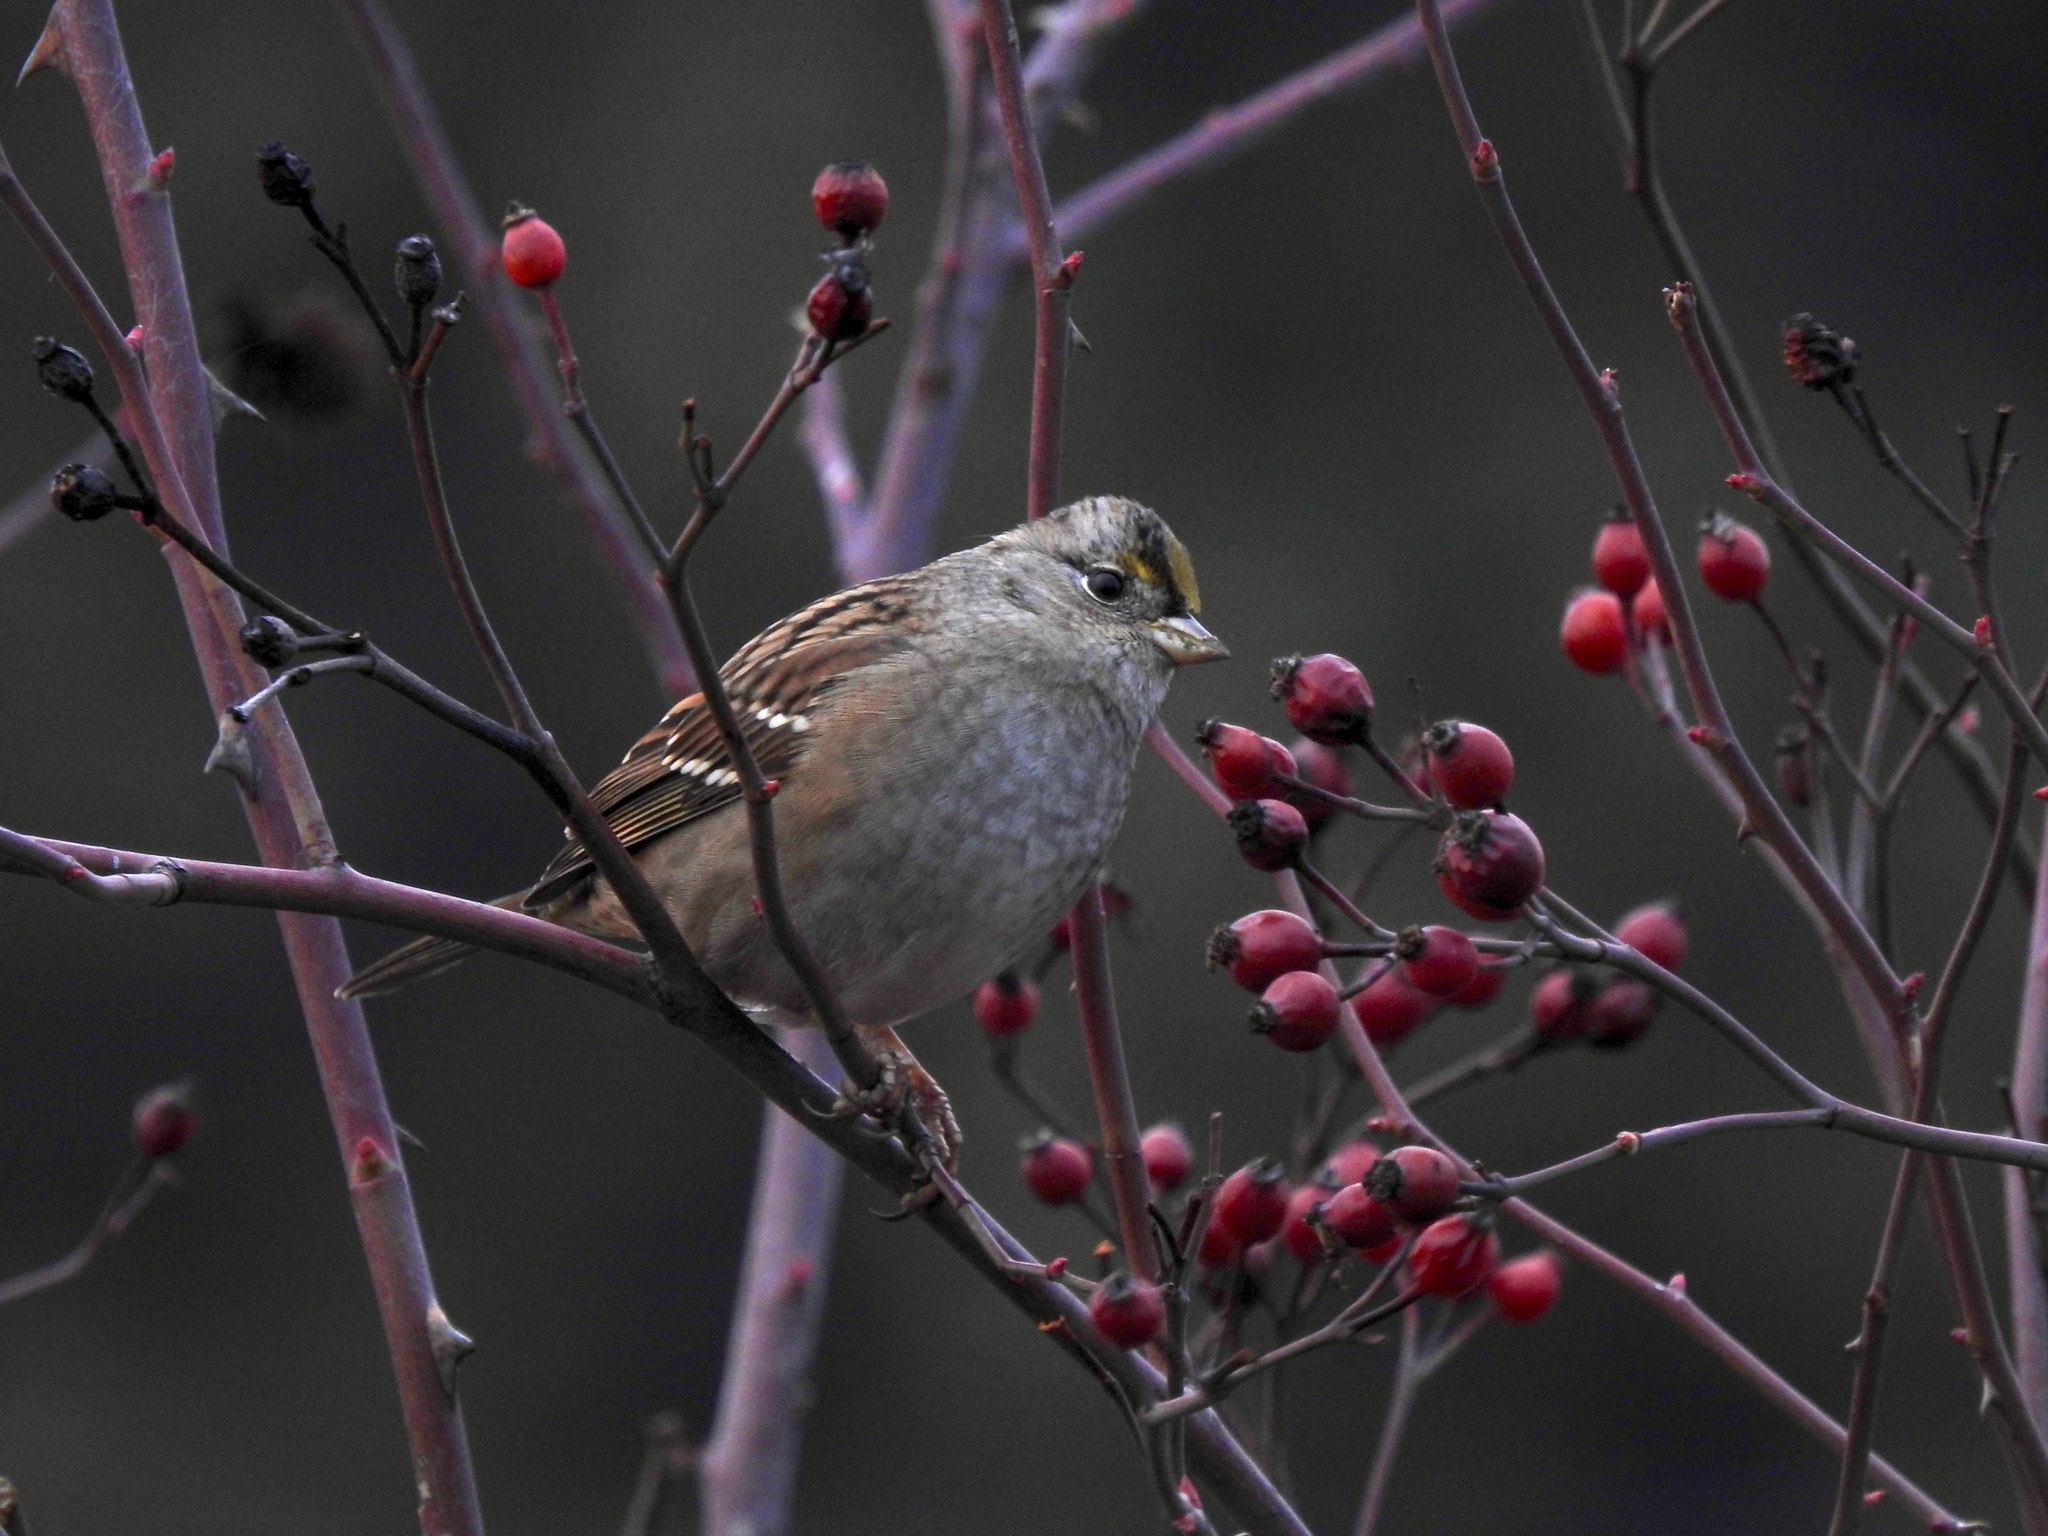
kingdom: Animalia
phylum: Chordata
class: Aves
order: Passeriformes
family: Passerellidae
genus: Zonotrichia
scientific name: Zonotrichia atricapilla
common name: Golden-crowned sparrow
